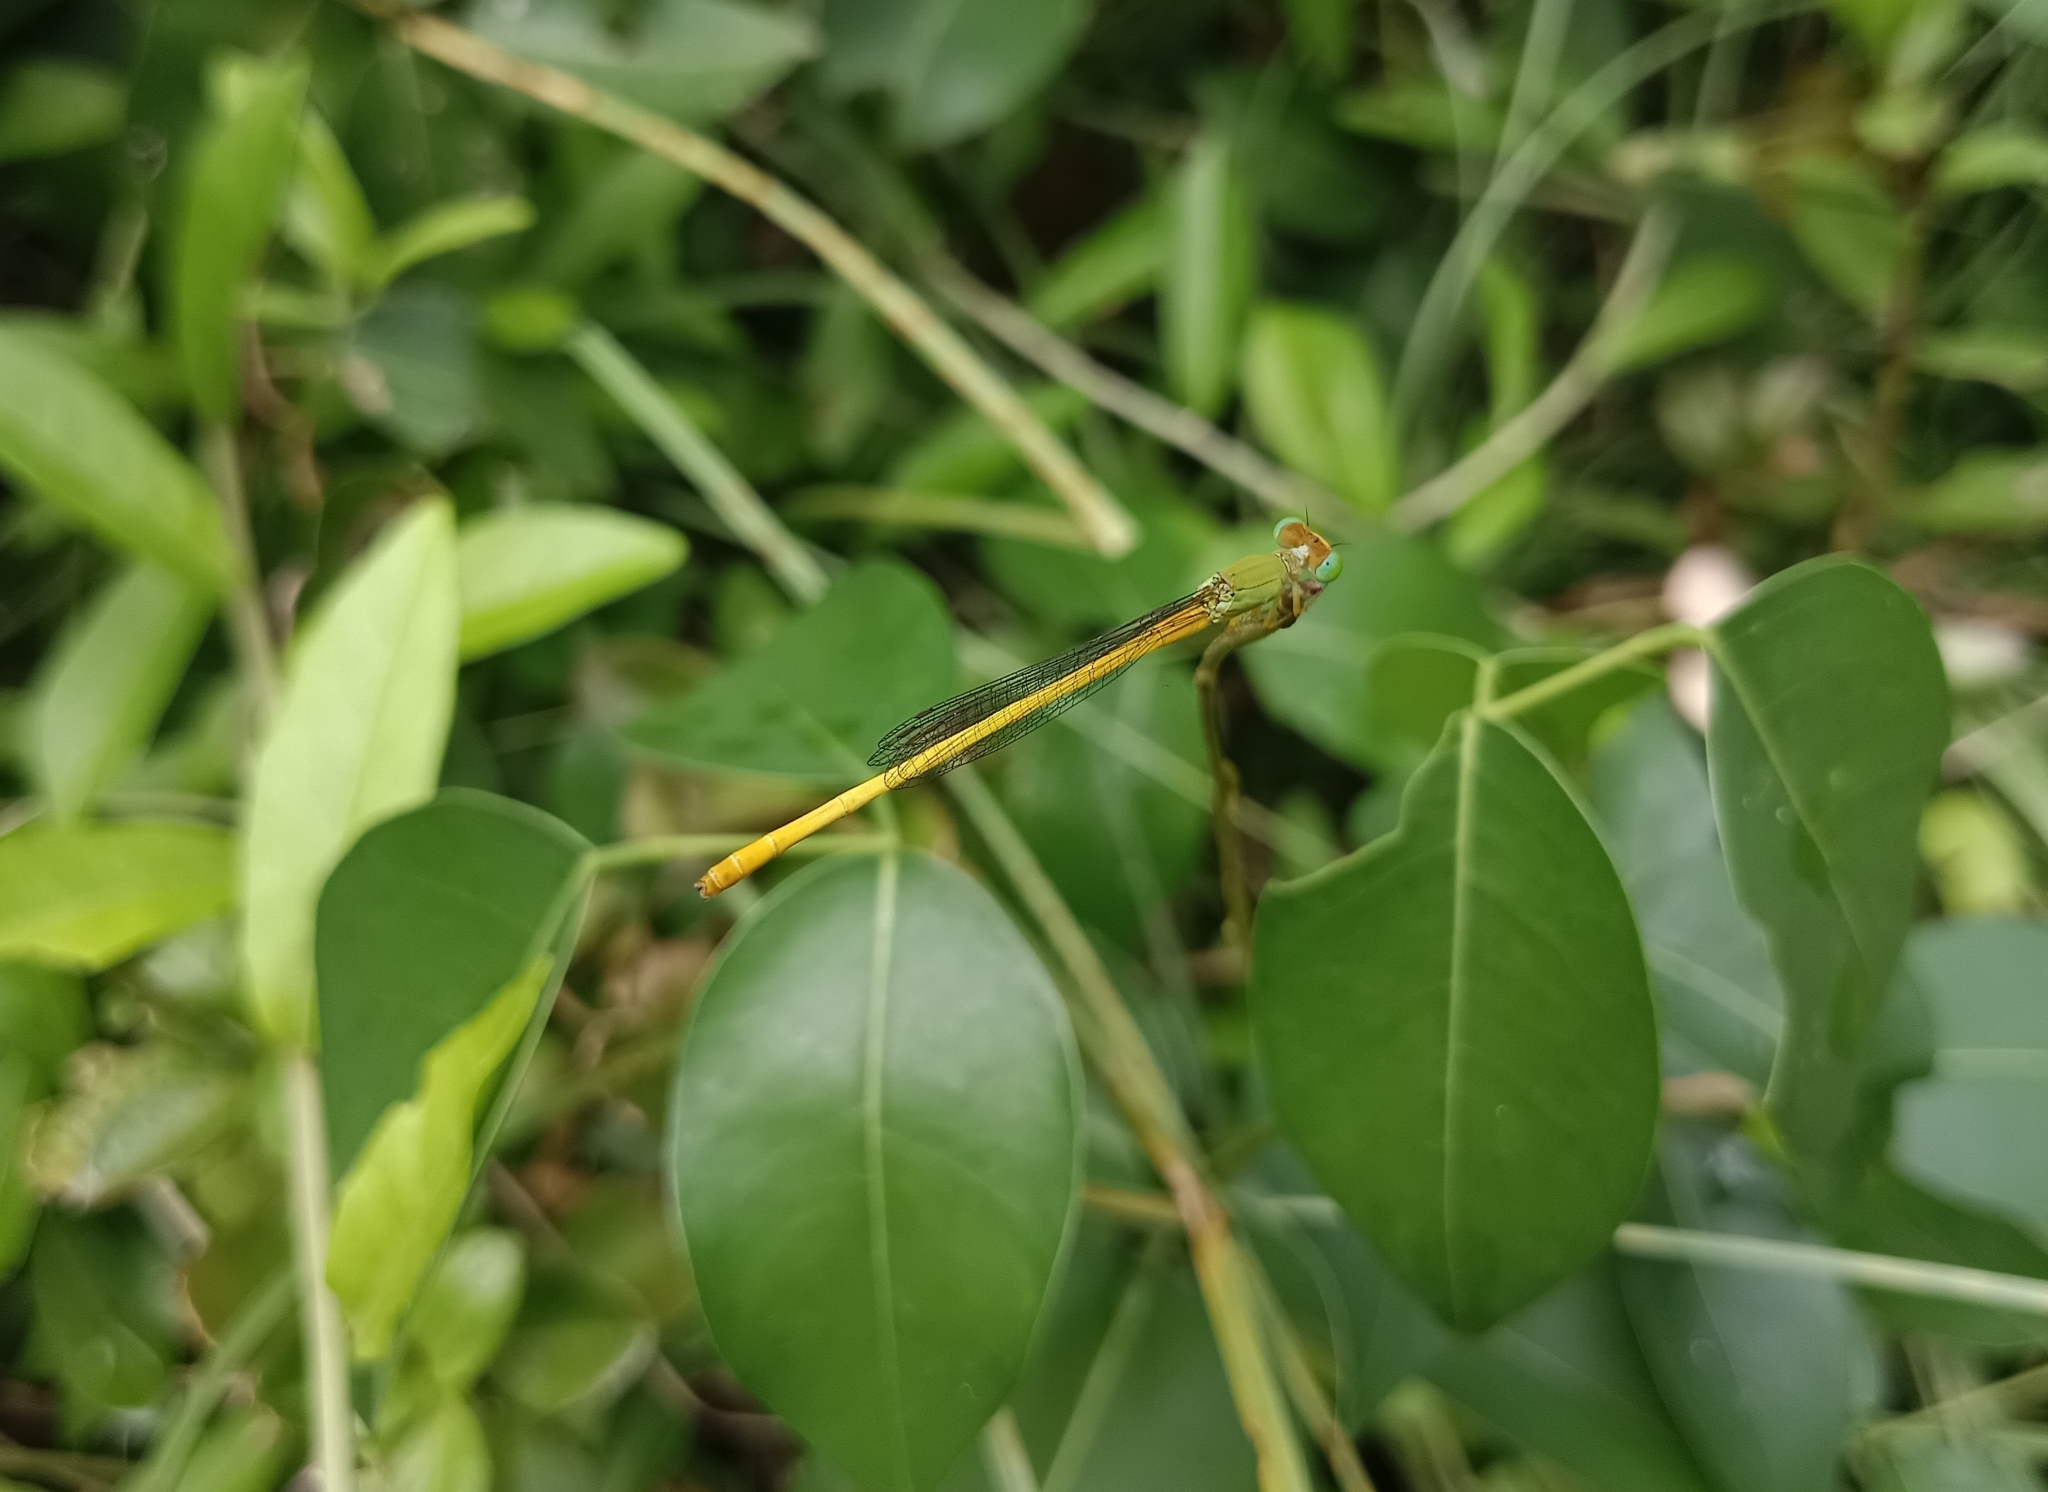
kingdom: Animalia
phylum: Arthropoda
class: Insecta
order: Odonata
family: Coenagrionidae
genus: Ceriagrion
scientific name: Ceriagrion coromandelianum
